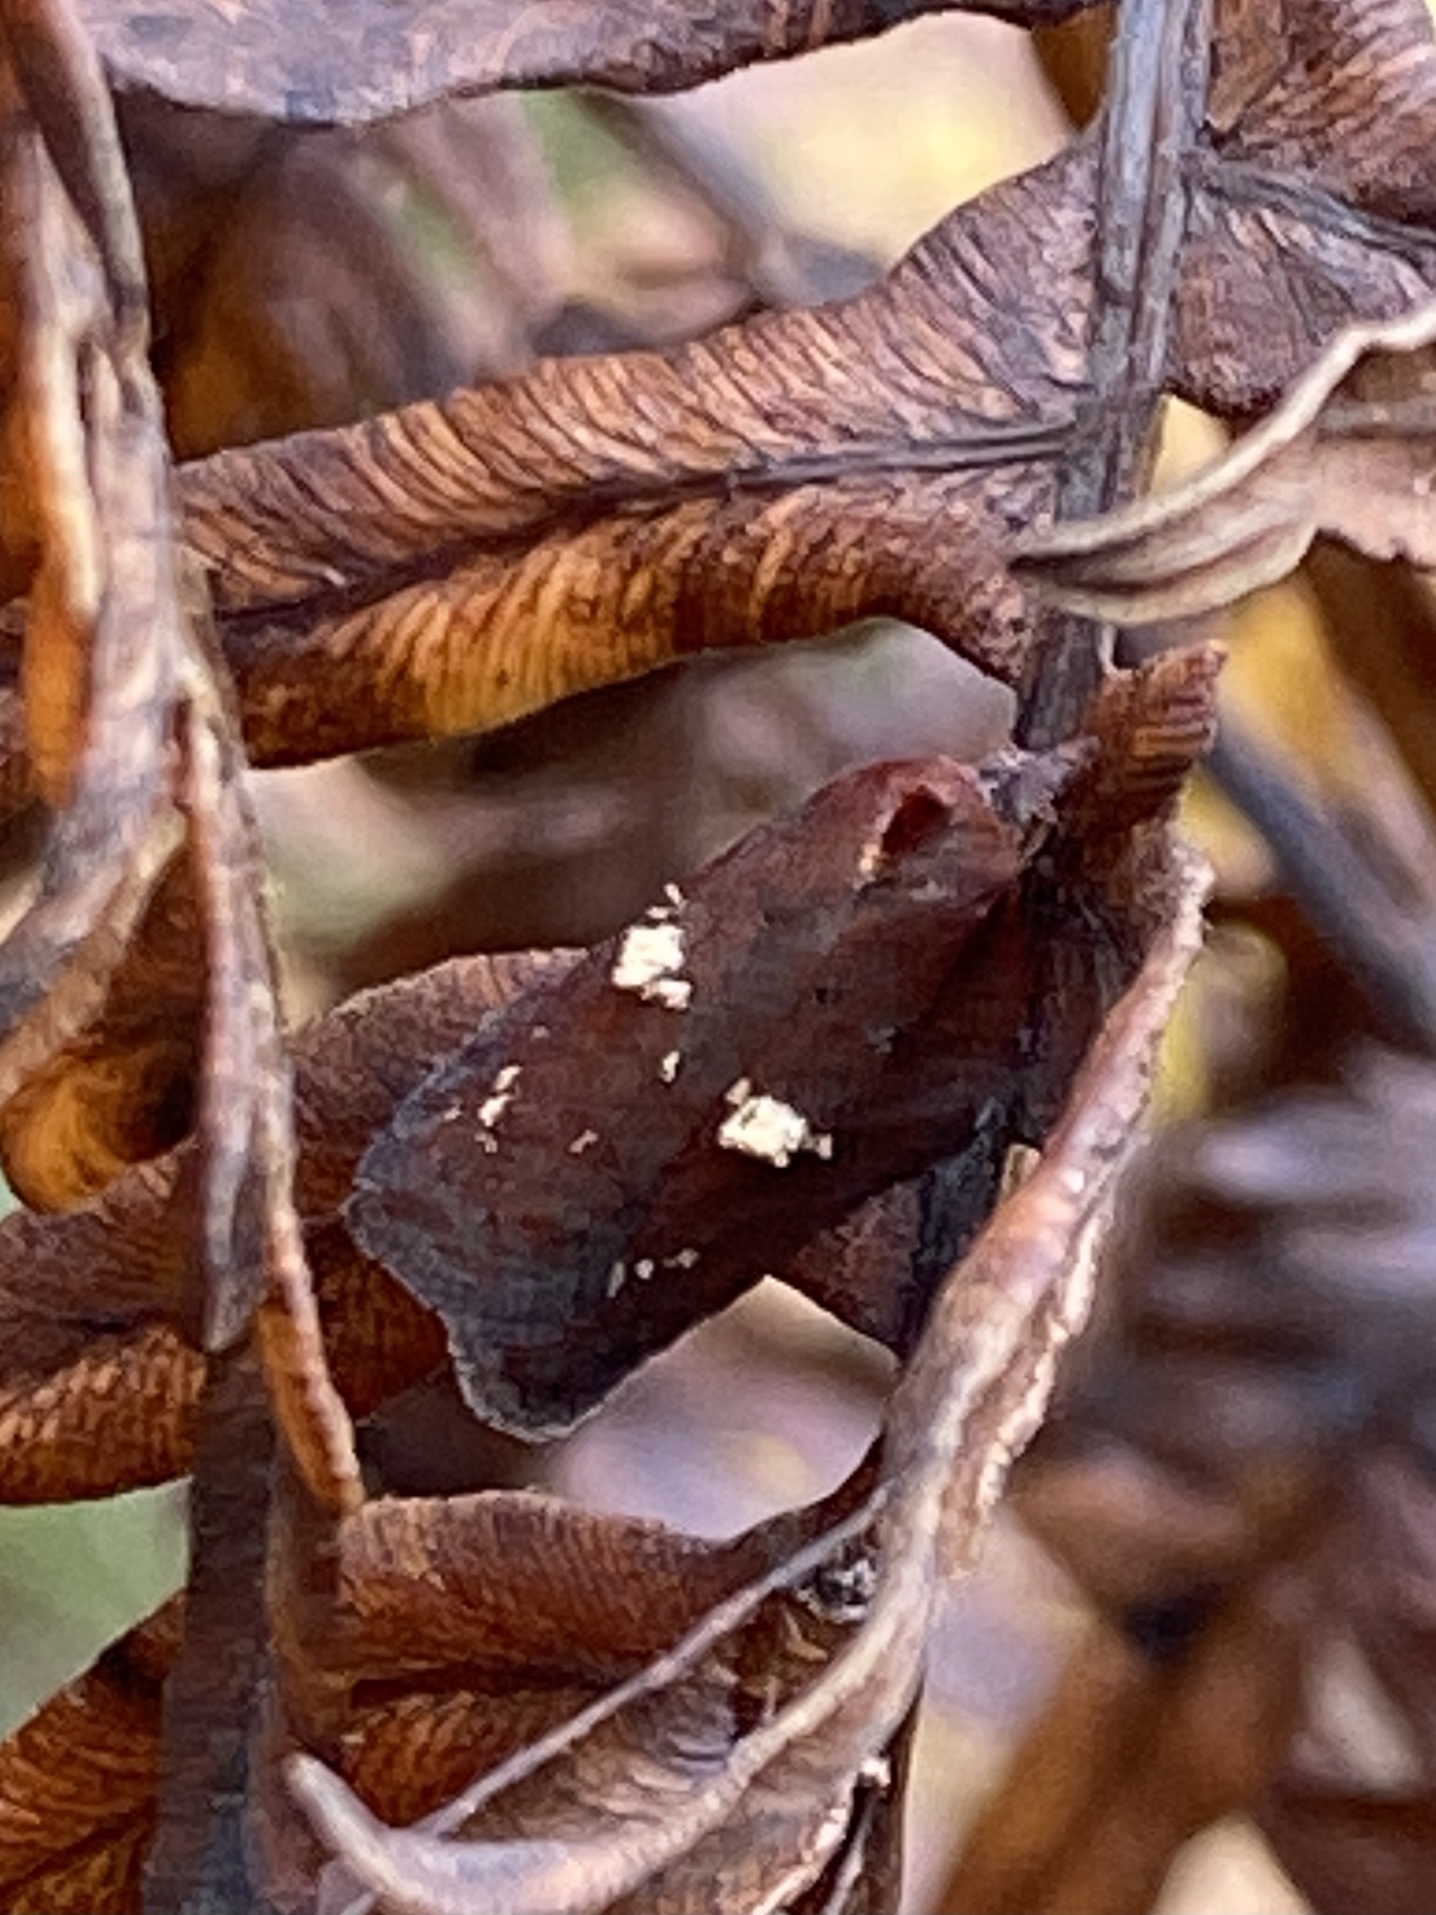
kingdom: Animalia
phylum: Arthropoda
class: Insecta
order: Lepidoptera
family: Tortricidae
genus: Acleris
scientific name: Acleris bowmanana
